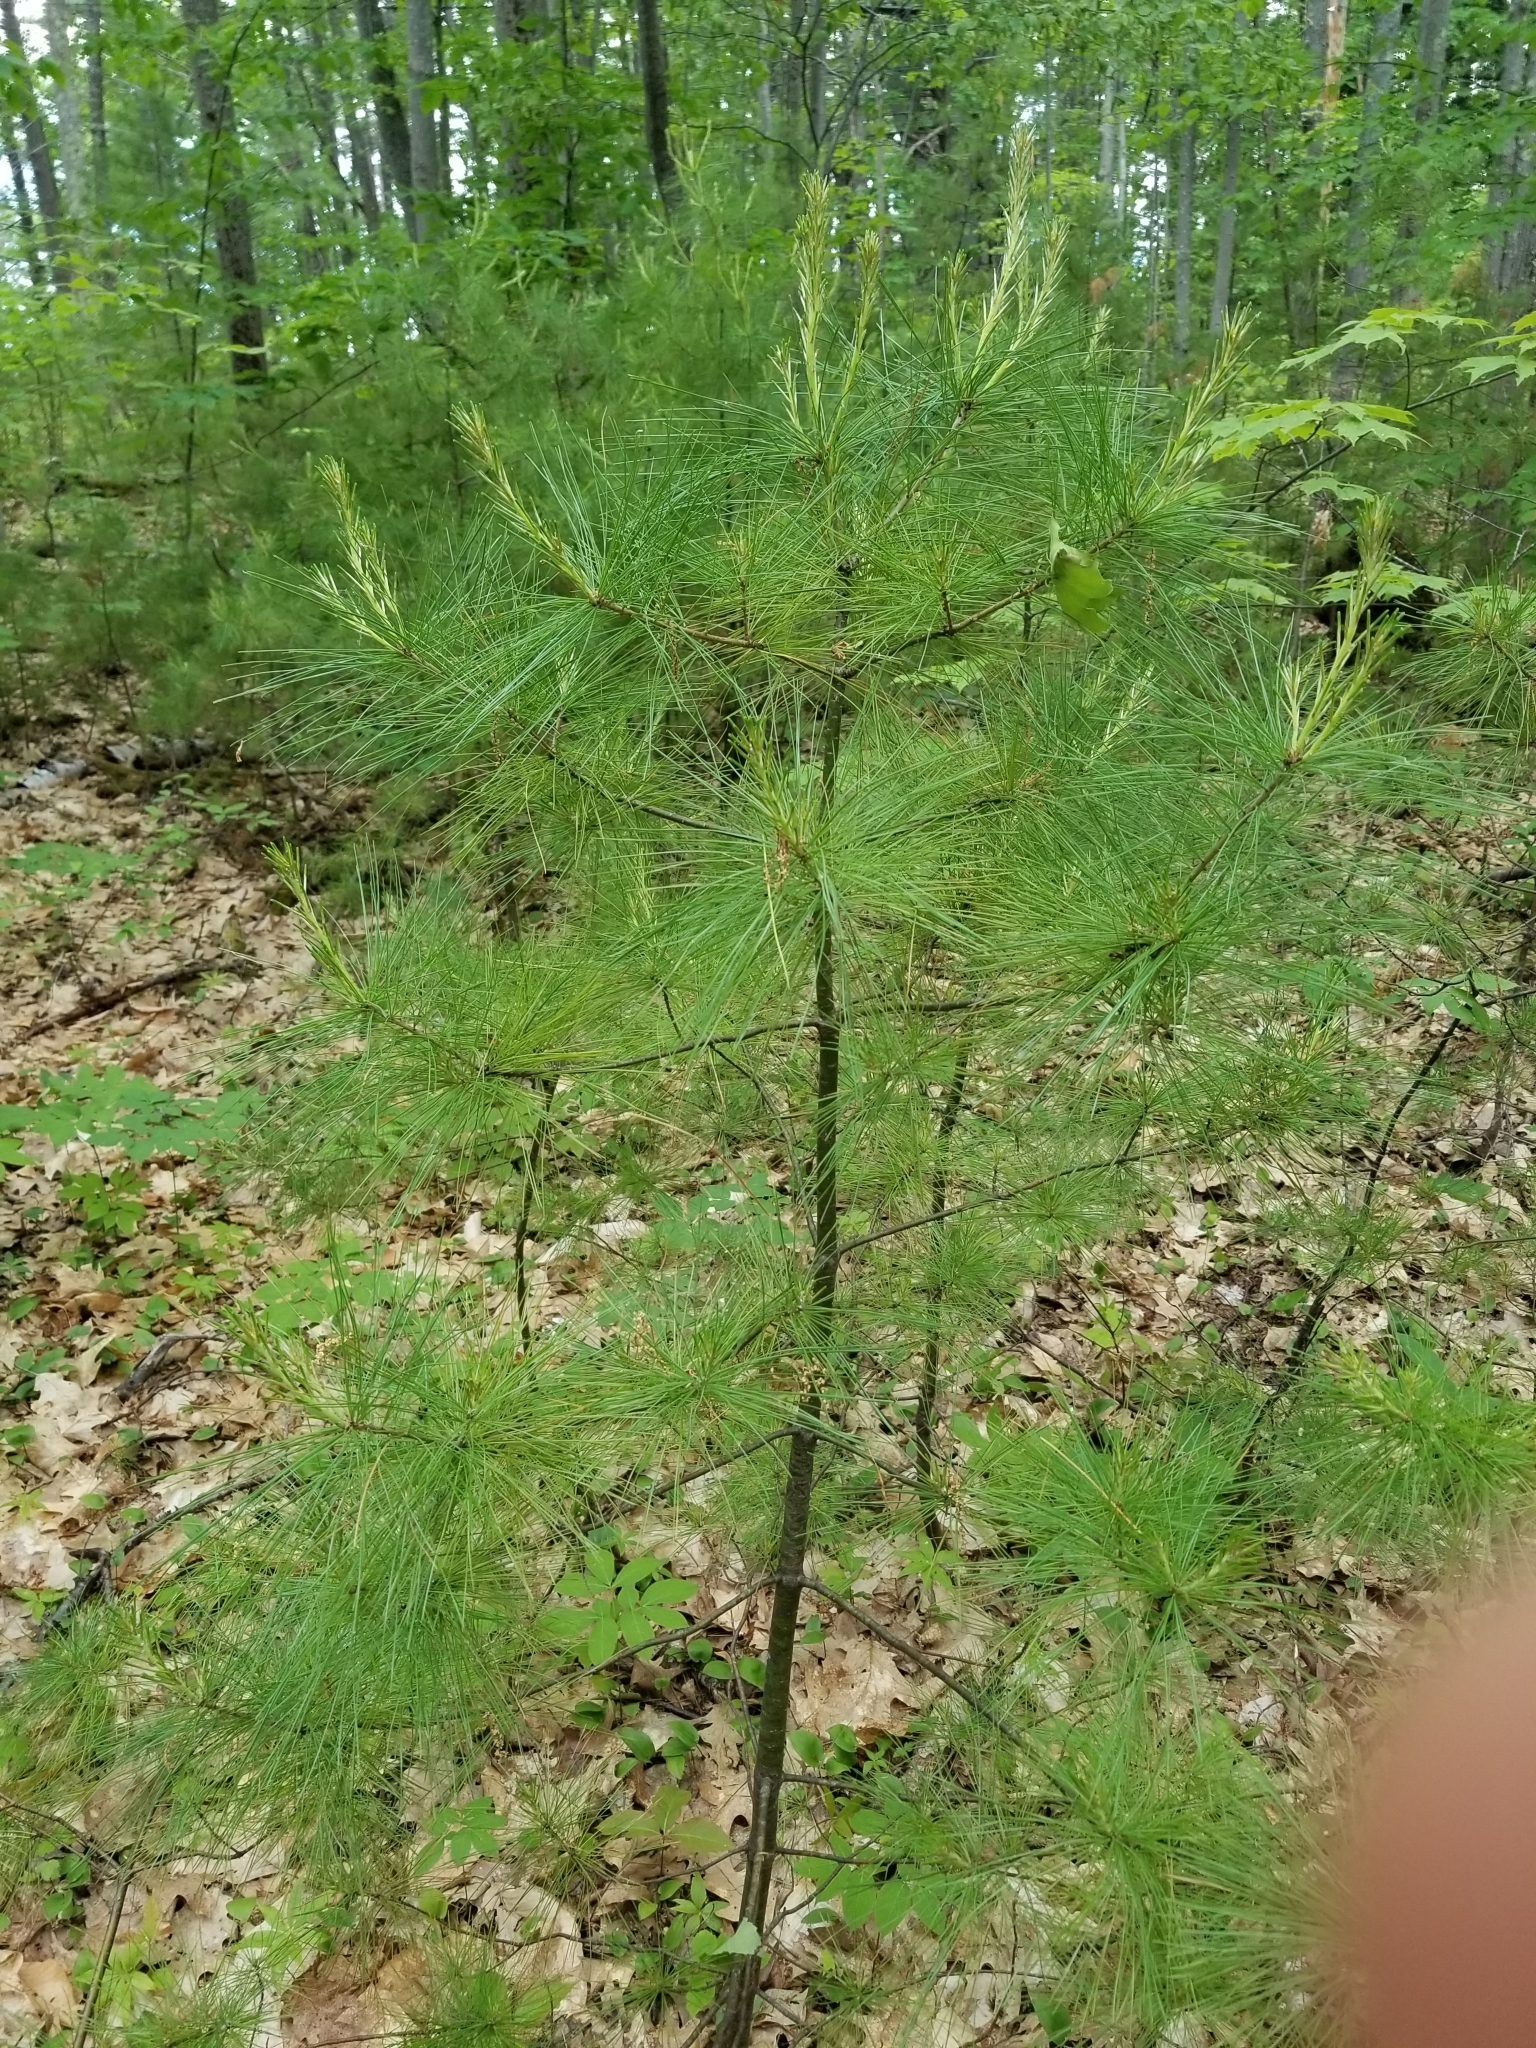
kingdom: Plantae
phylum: Tracheophyta
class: Pinopsida
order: Pinales
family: Pinaceae
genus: Pinus
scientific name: Pinus strobus
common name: Weymouth pine
